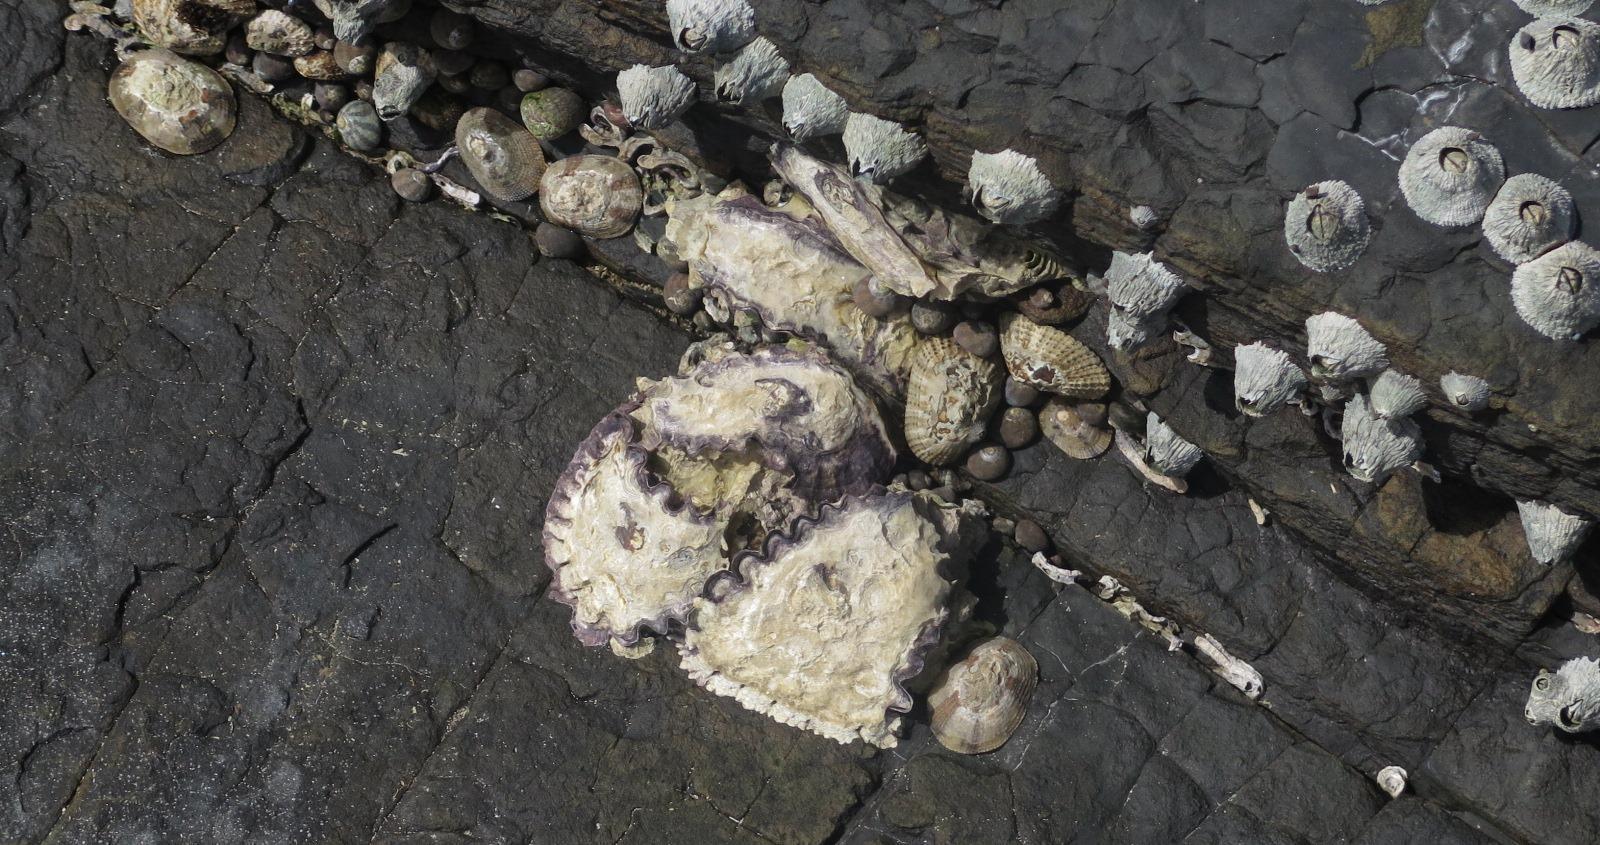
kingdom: Animalia
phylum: Mollusca
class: Bivalvia
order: Ostreida
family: Ostreidae
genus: Saccostrea
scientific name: Saccostrea cuccullata
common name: Natal rock oyster
